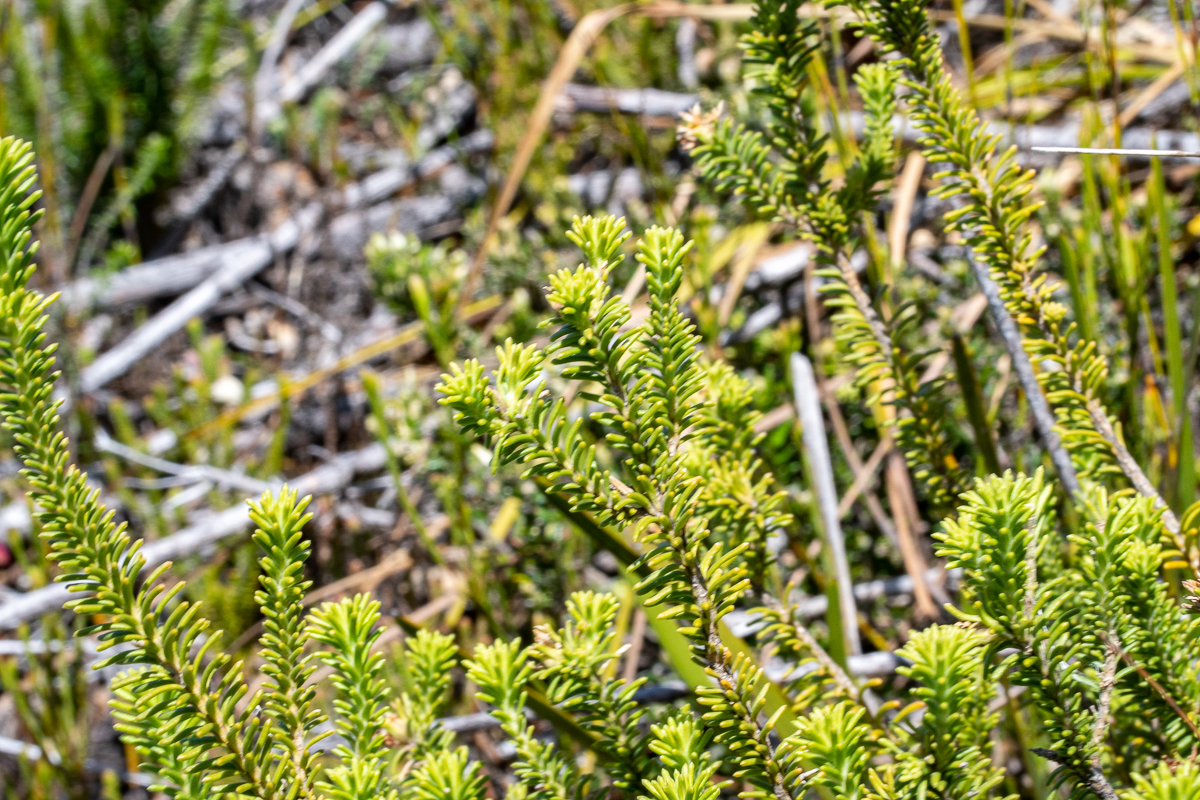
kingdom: Plantae
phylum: Tracheophyta
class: Magnoliopsida
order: Lamiales
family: Stilbaceae
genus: Campylostachys
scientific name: Campylostachys cernua
